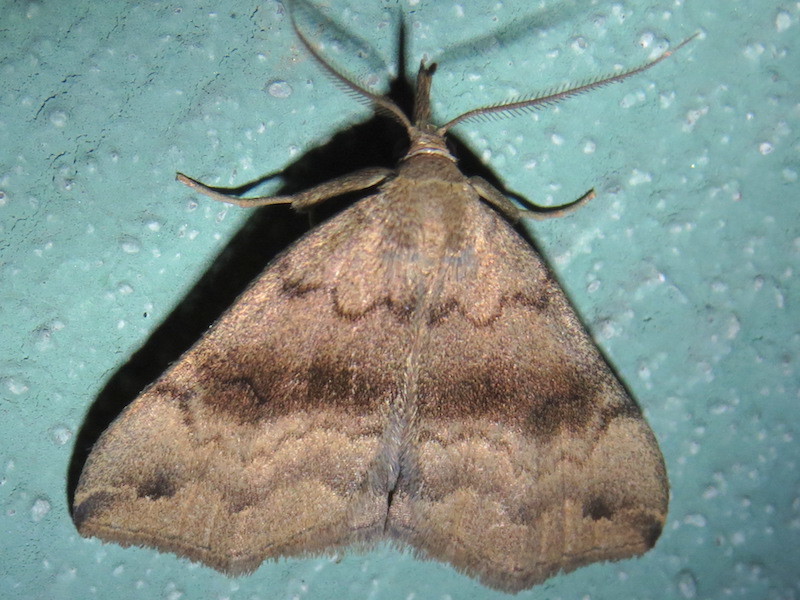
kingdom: Animalia
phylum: Arthropoda
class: Insecta
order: Lepidoptera
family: Erebidae
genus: Phalaenostola
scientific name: Phalaenostola eumelusalis
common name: Dark phalaenostola moth
